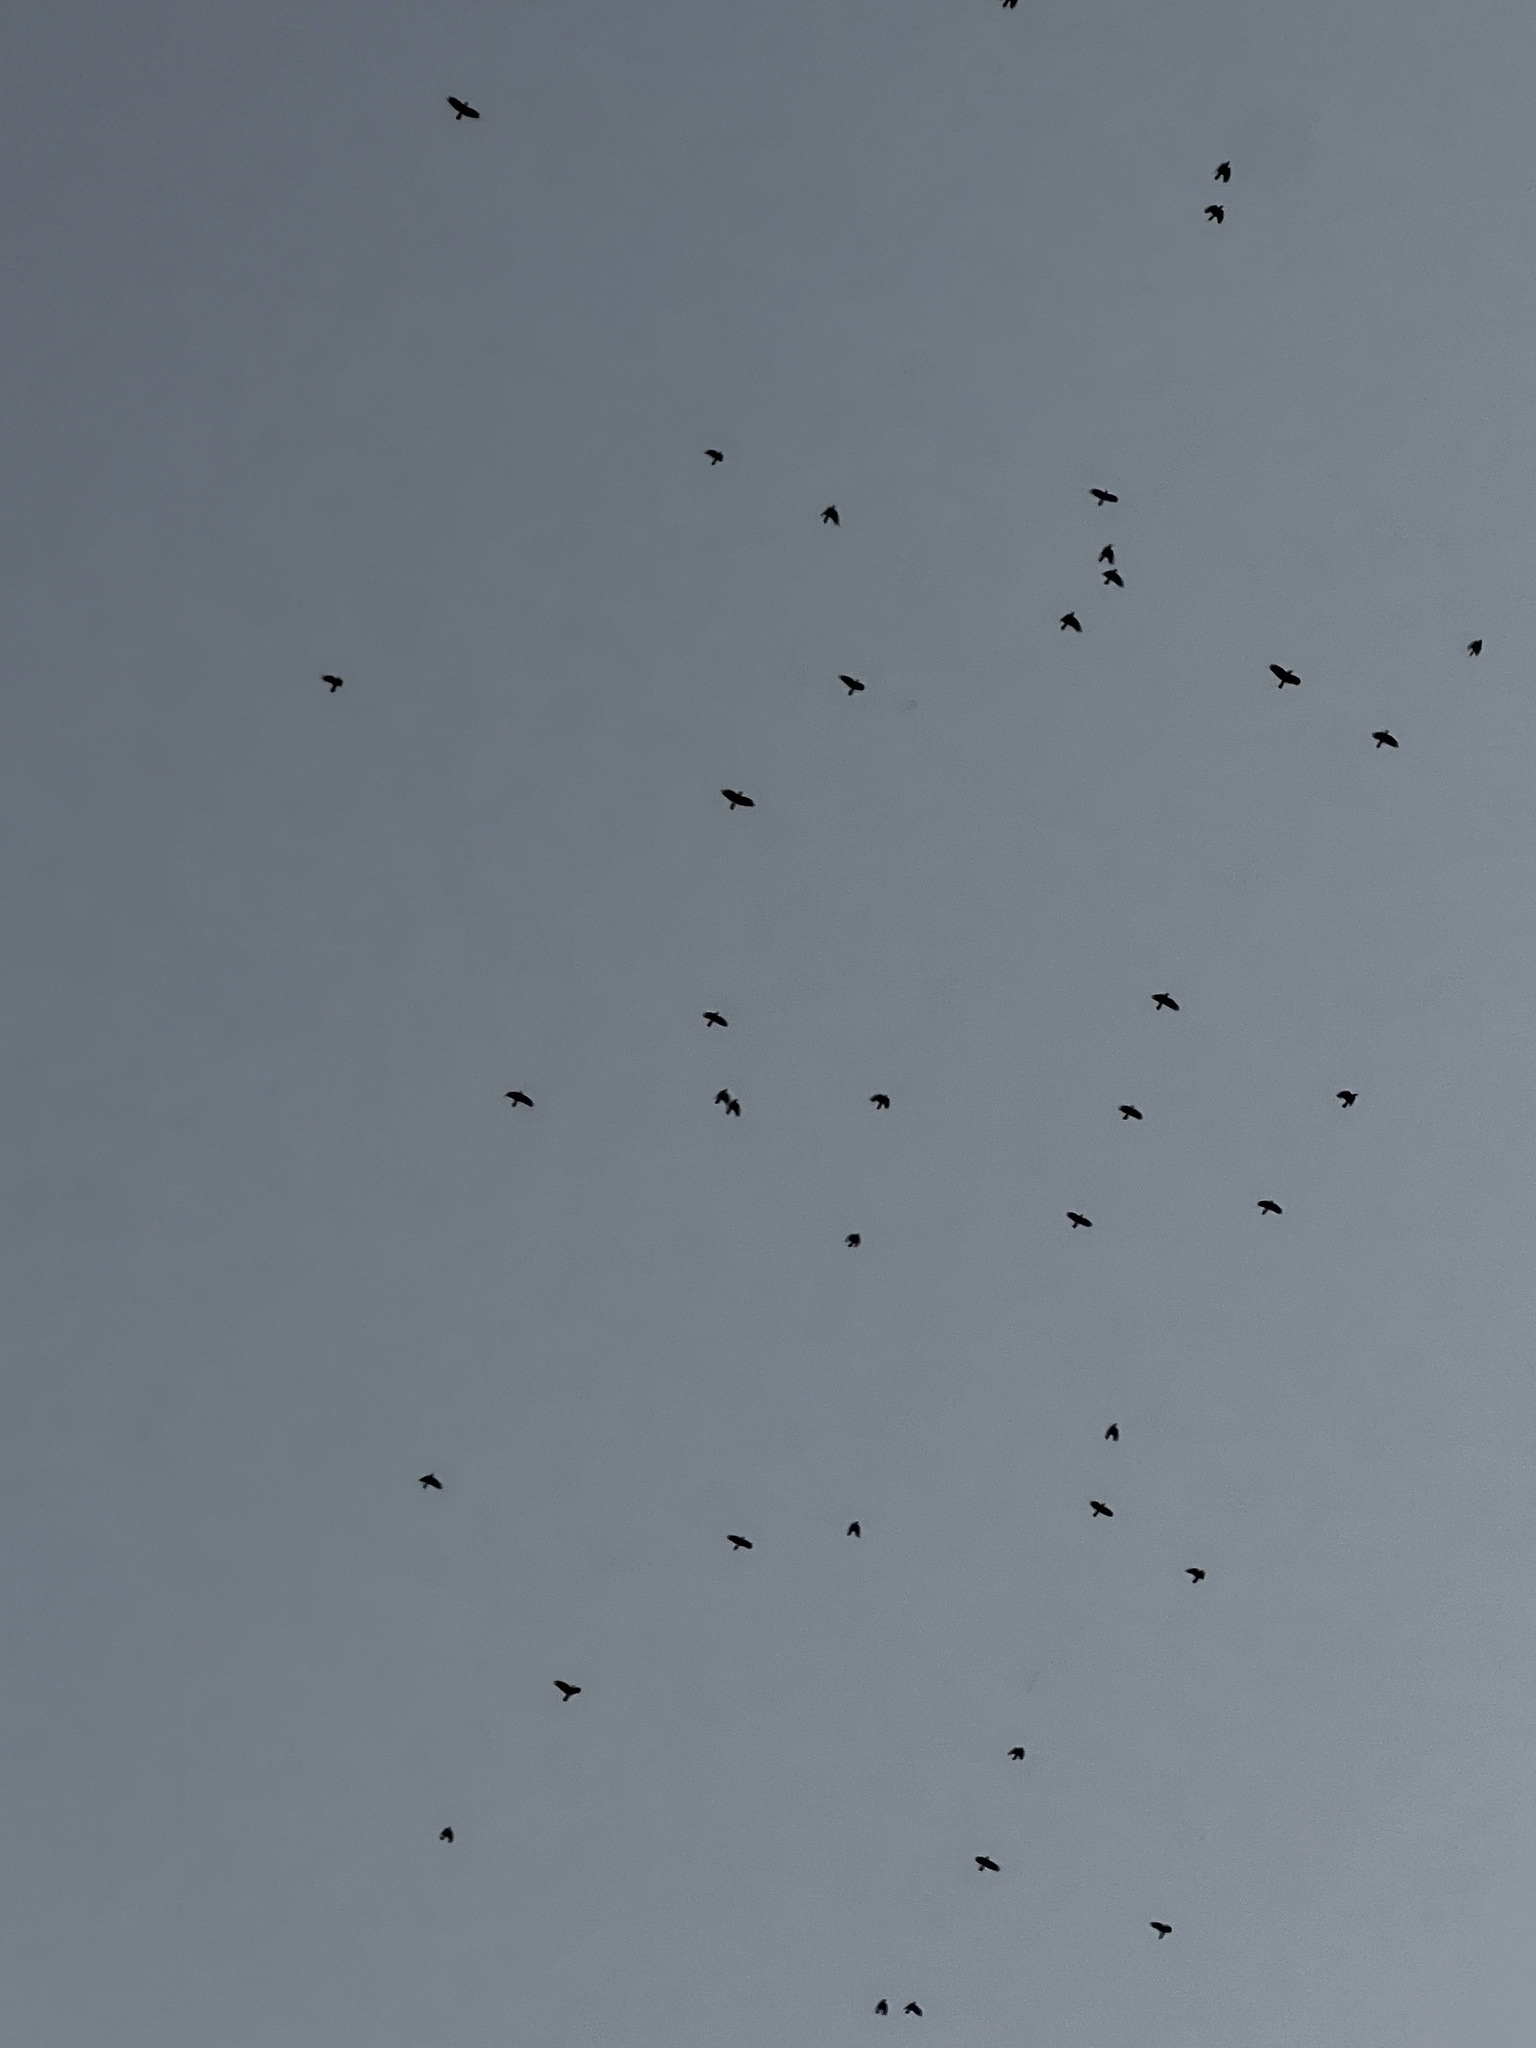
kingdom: Animalia
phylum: Chordata
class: Aves
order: Passeriformes
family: Corvidae
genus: Corvus
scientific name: Corvus brachyrhynchos
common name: American crow
